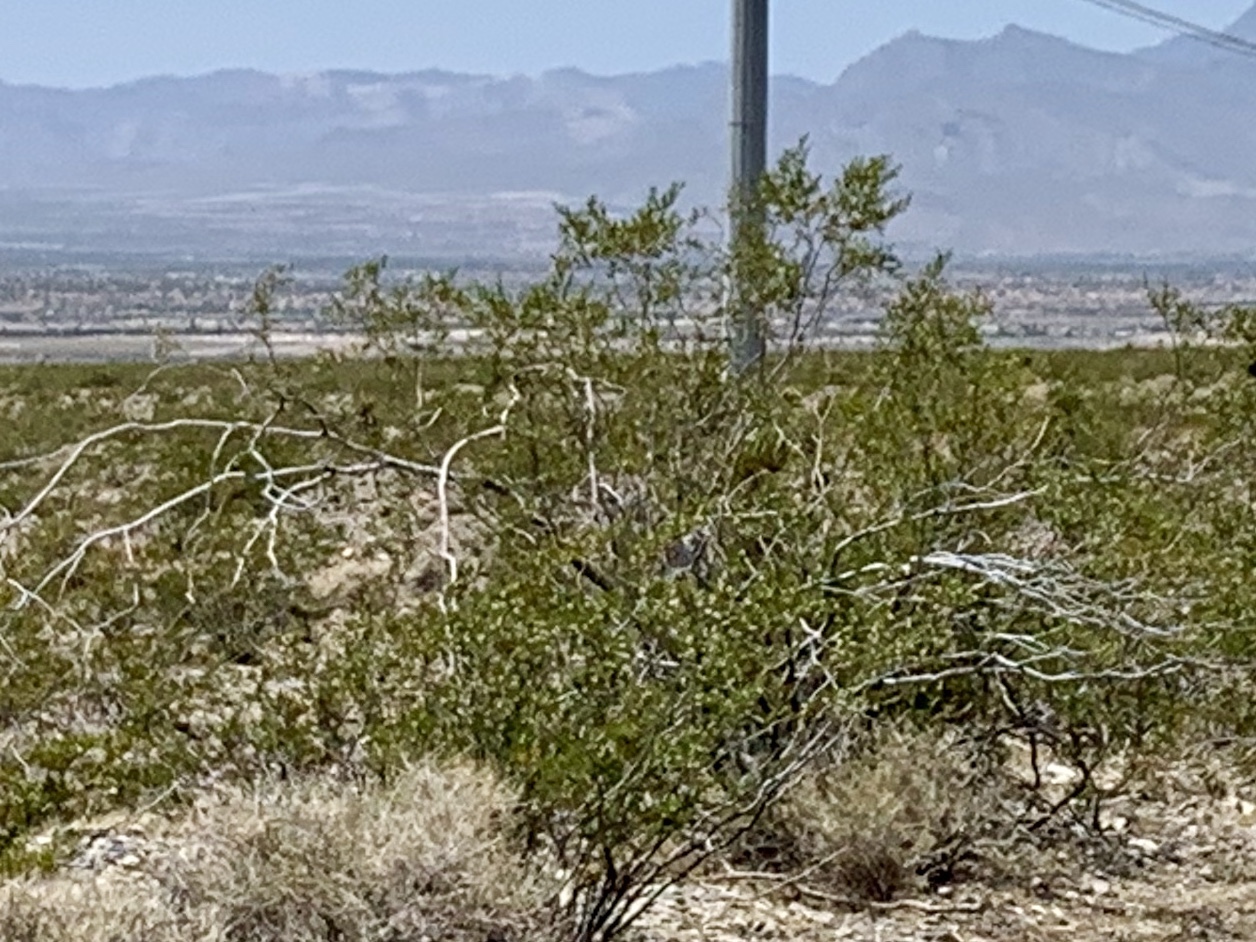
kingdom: Plantae
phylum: Tracheophyta
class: Magnoliopsida
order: Zygophyllales
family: Zygophyllaceae
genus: Larrea
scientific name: Larrea tridentata
